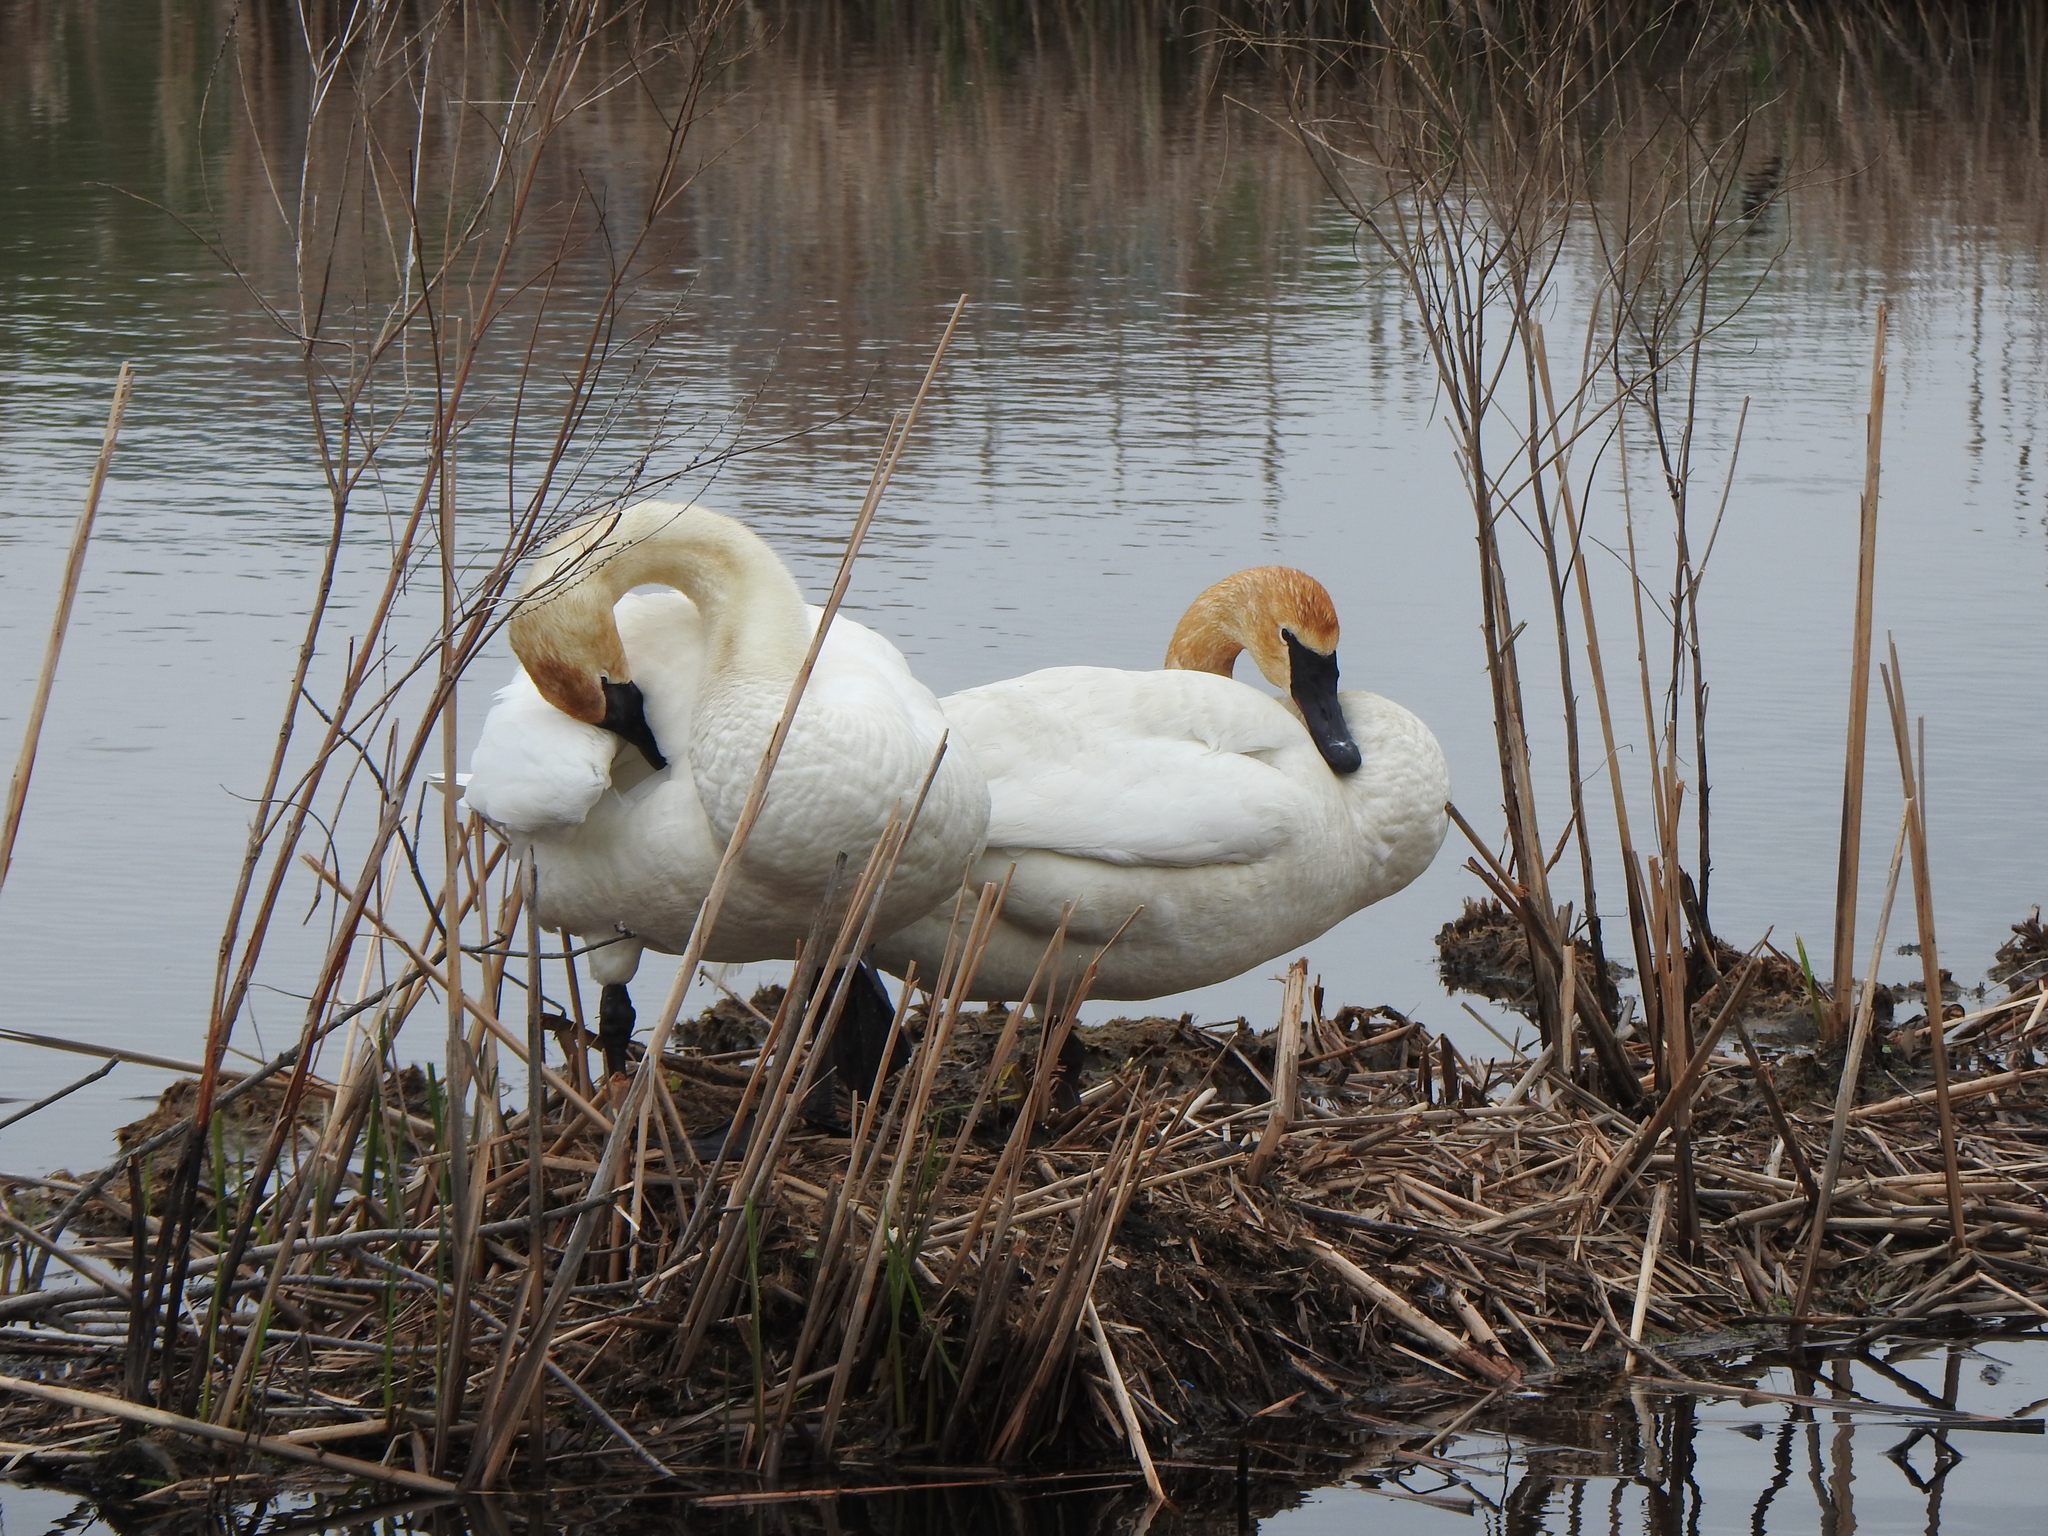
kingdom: Animalia
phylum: Chordata
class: Aves
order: Anseriformes
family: Anatidae
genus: Cygnus
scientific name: Cygnus buccinator
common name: Trumpeter swan
